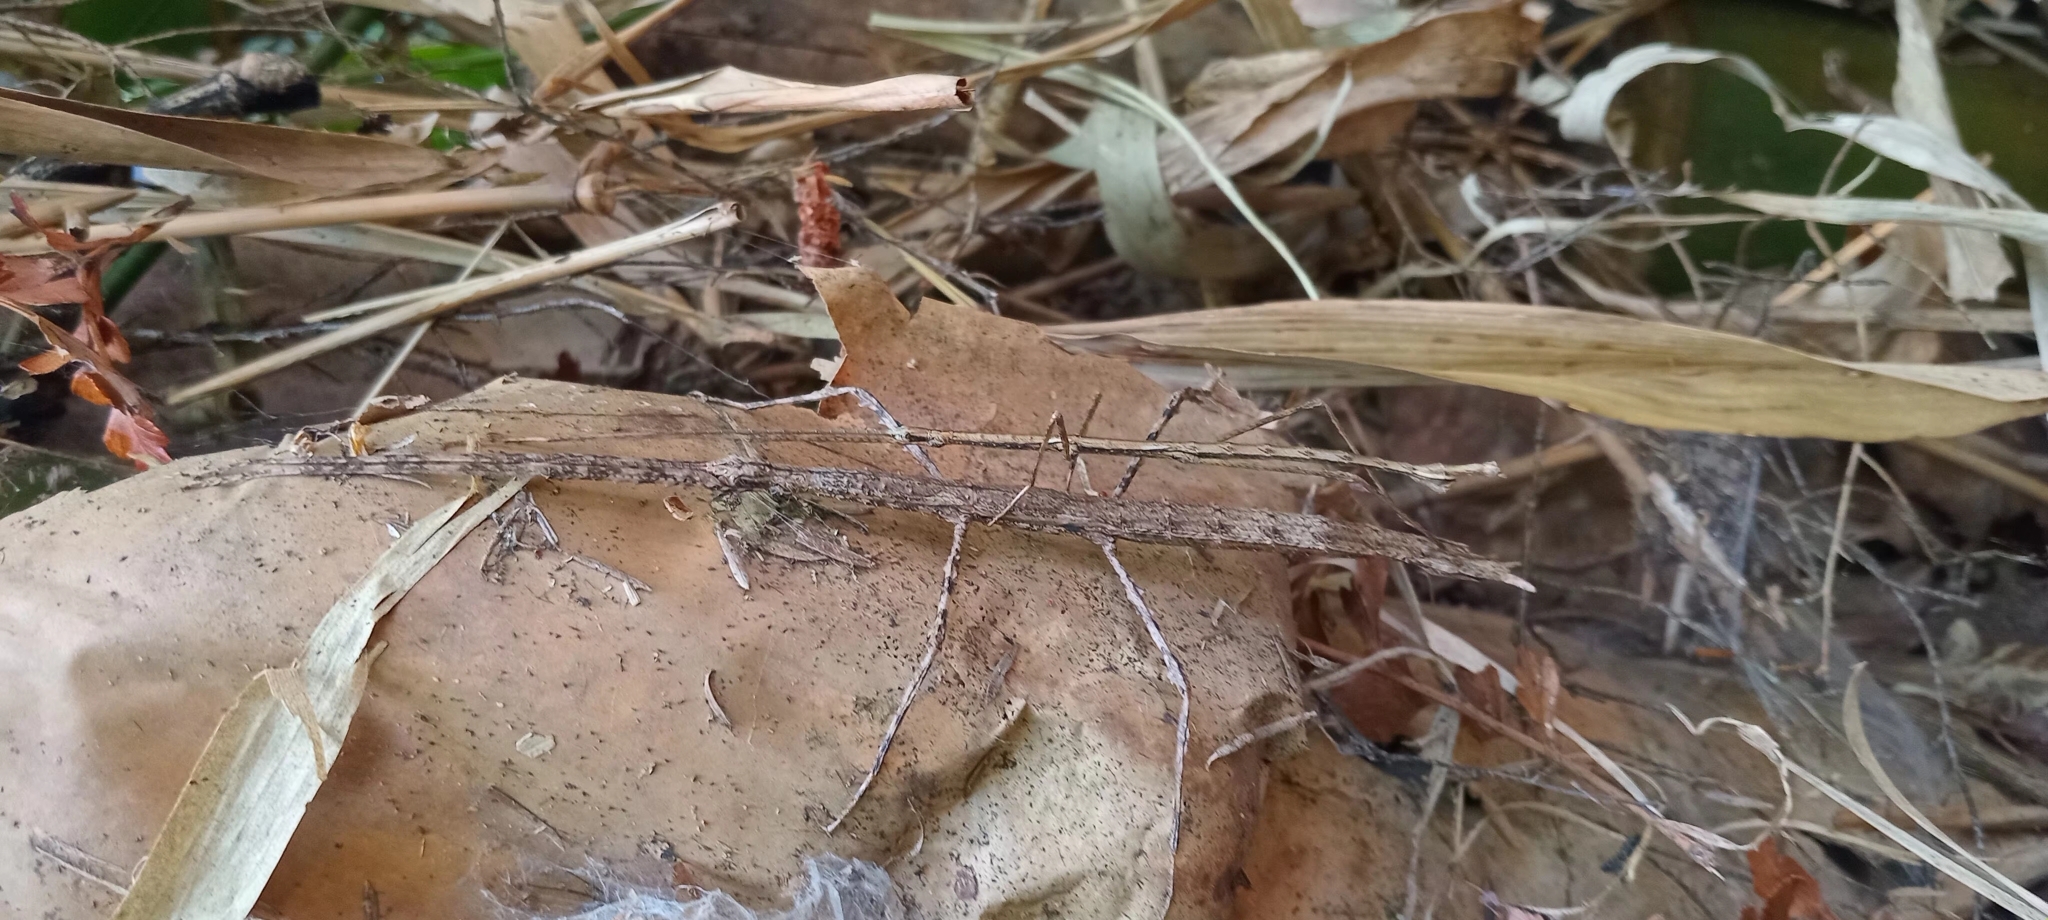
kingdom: Animalia
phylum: Arthropoda
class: Insecta
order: Phasmida
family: Phasmatidae
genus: Clitarchus
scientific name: Clitarchus hookeri
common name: Smooth stick insect
